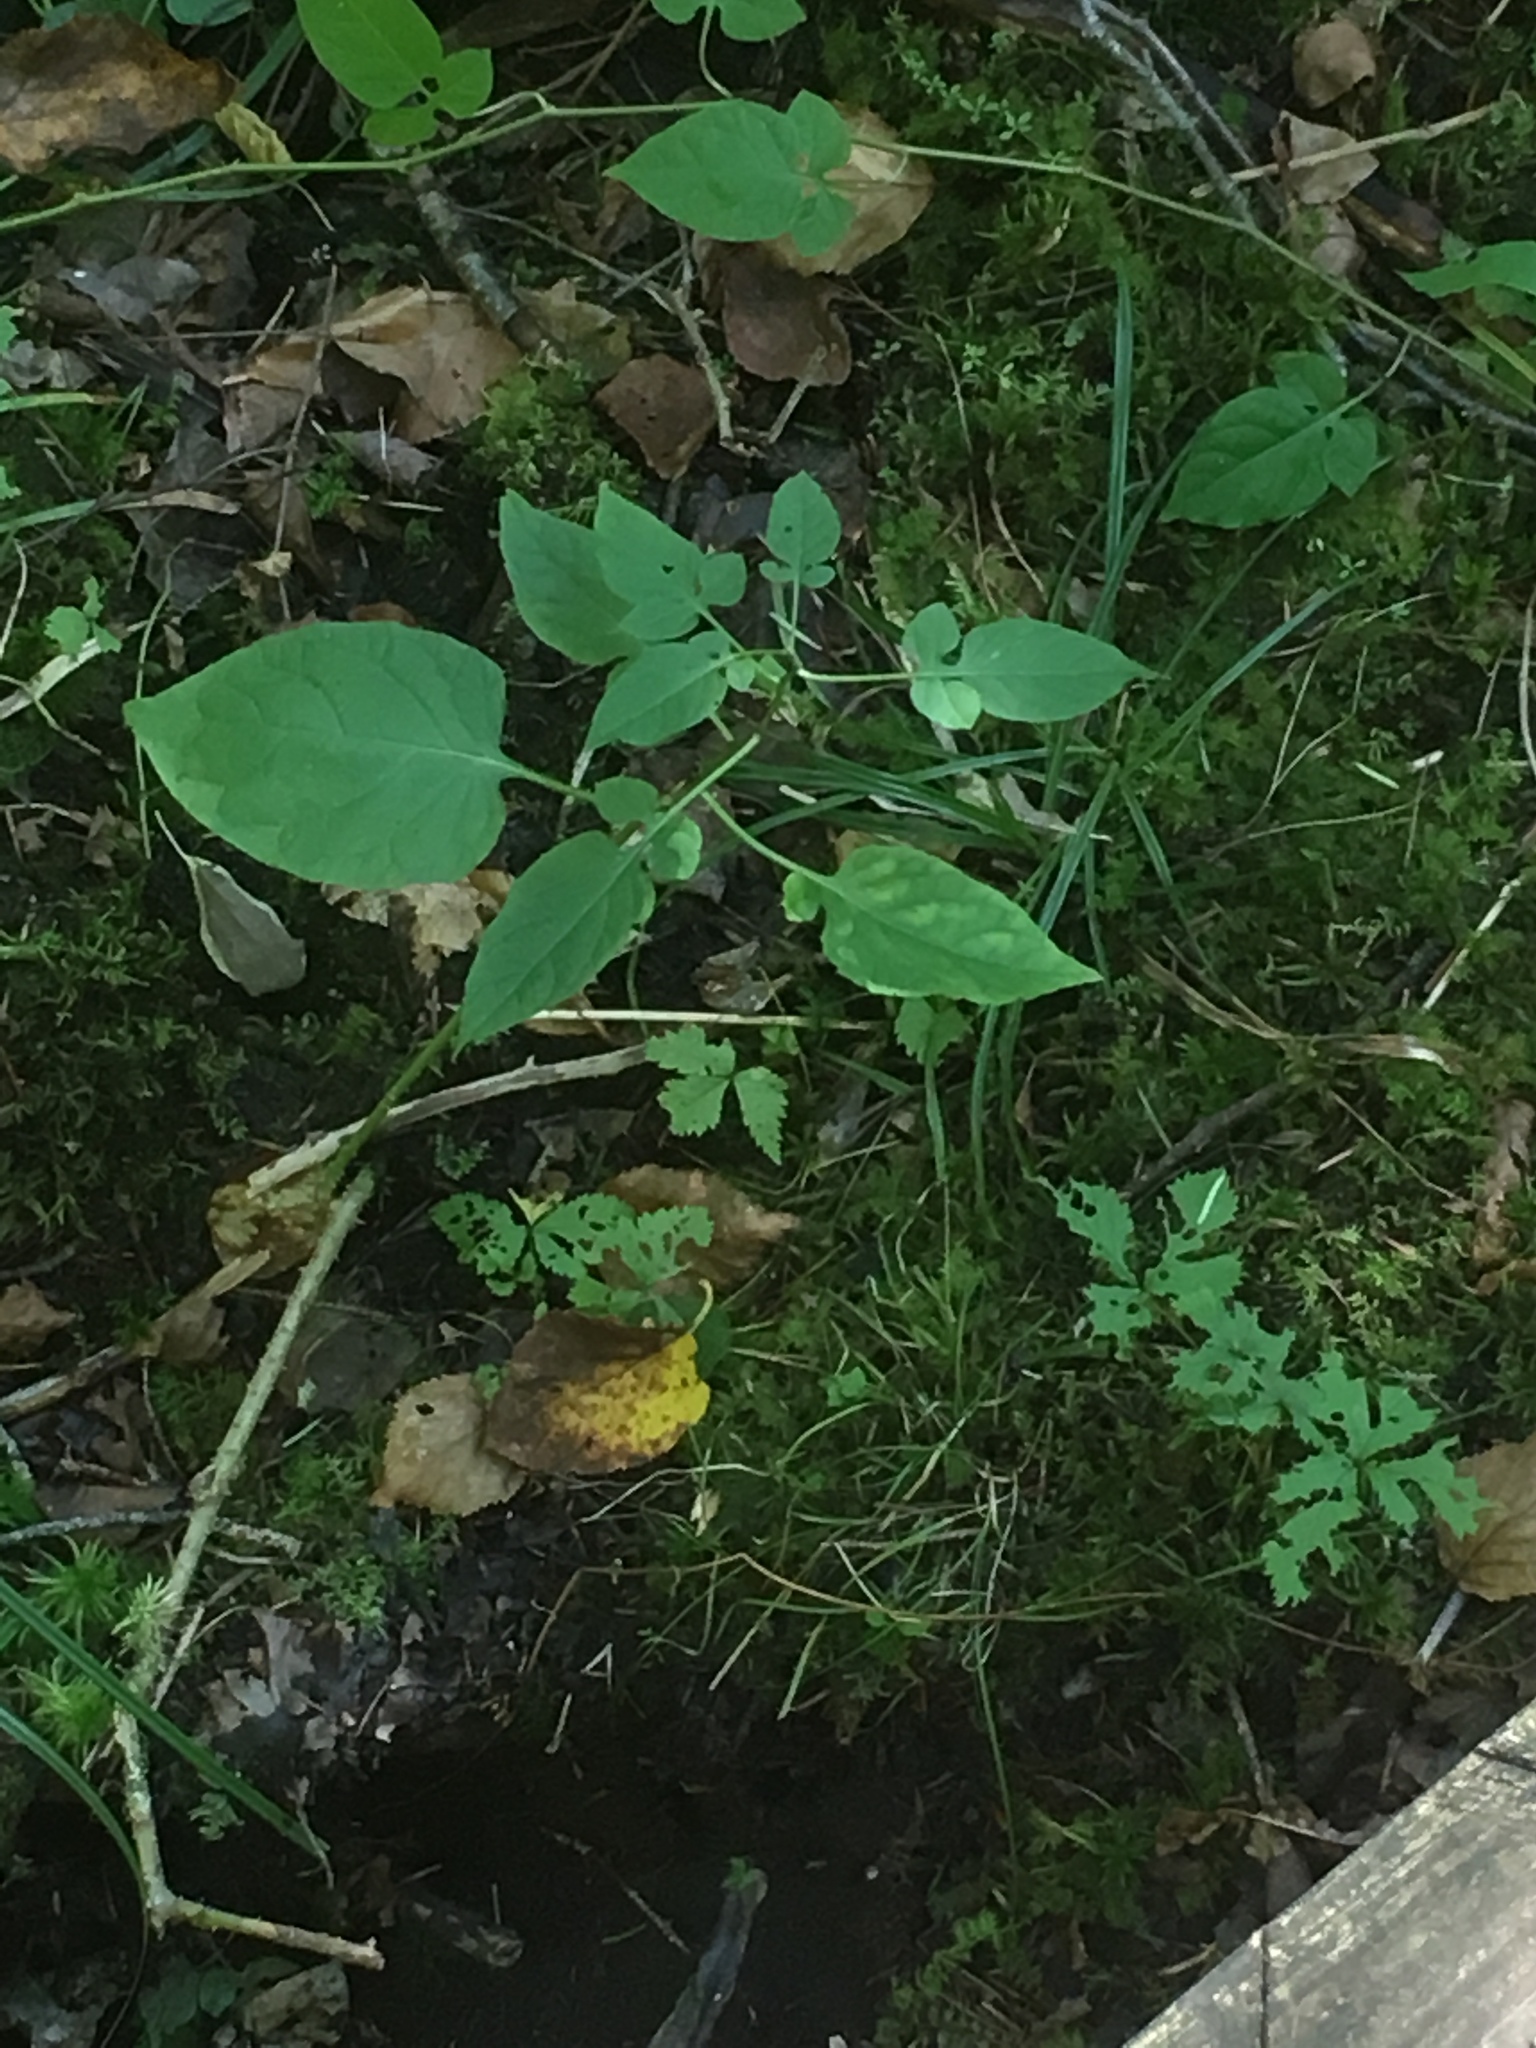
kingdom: Plantae
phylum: Tracheophyta
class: Magnoliopsida
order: Solanales
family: Solanaceae
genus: Solanum
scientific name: Solanum dulcamara
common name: Climbing nightshade
